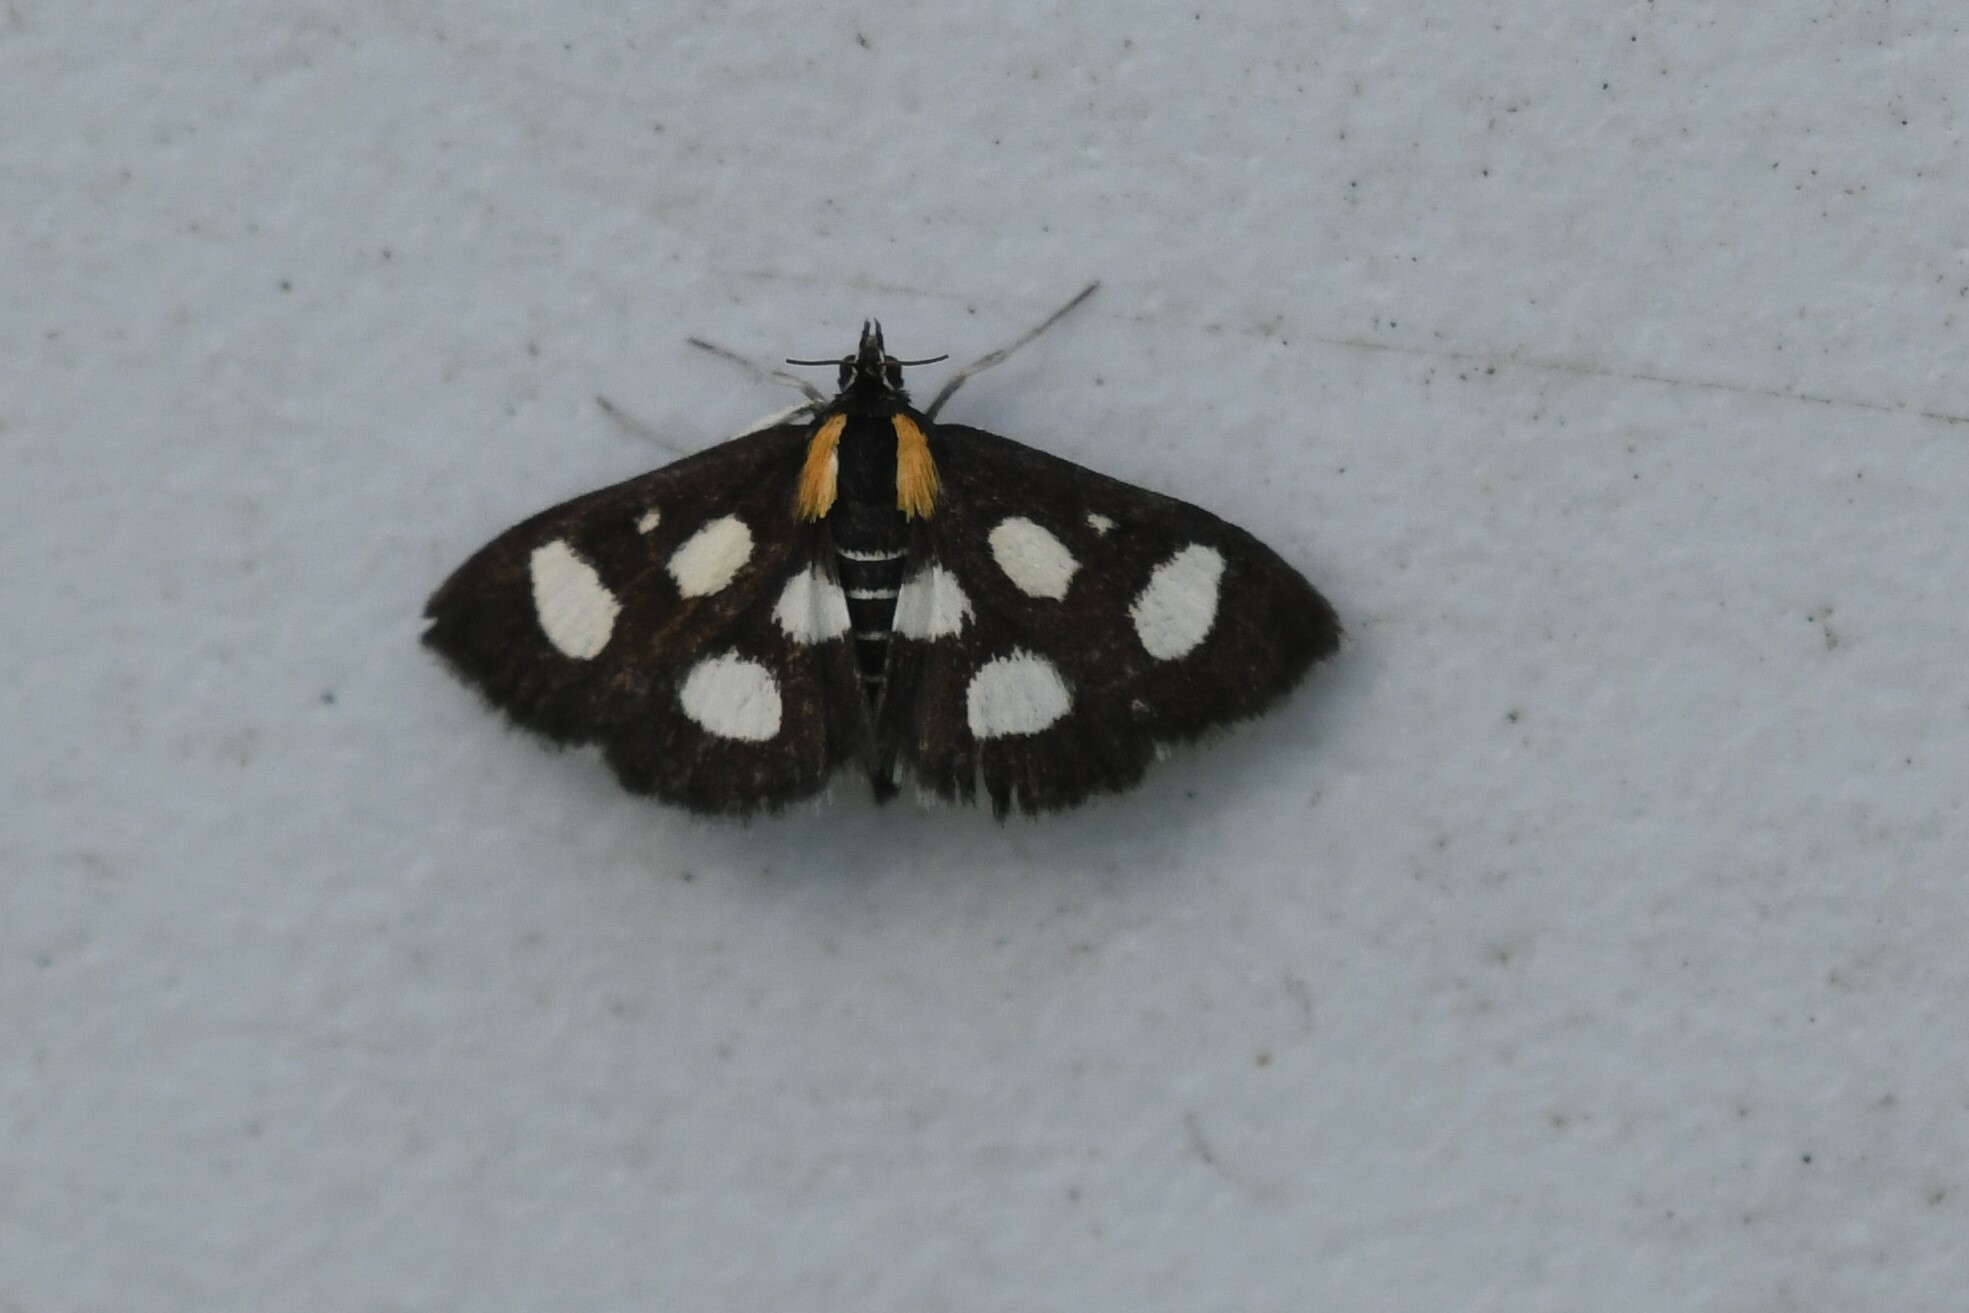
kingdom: Animalia
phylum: Arthropoda
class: Insecta
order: Lepidoptera
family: Crambidae
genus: Anania
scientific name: Anania funebris
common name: White-spotted sable moth
